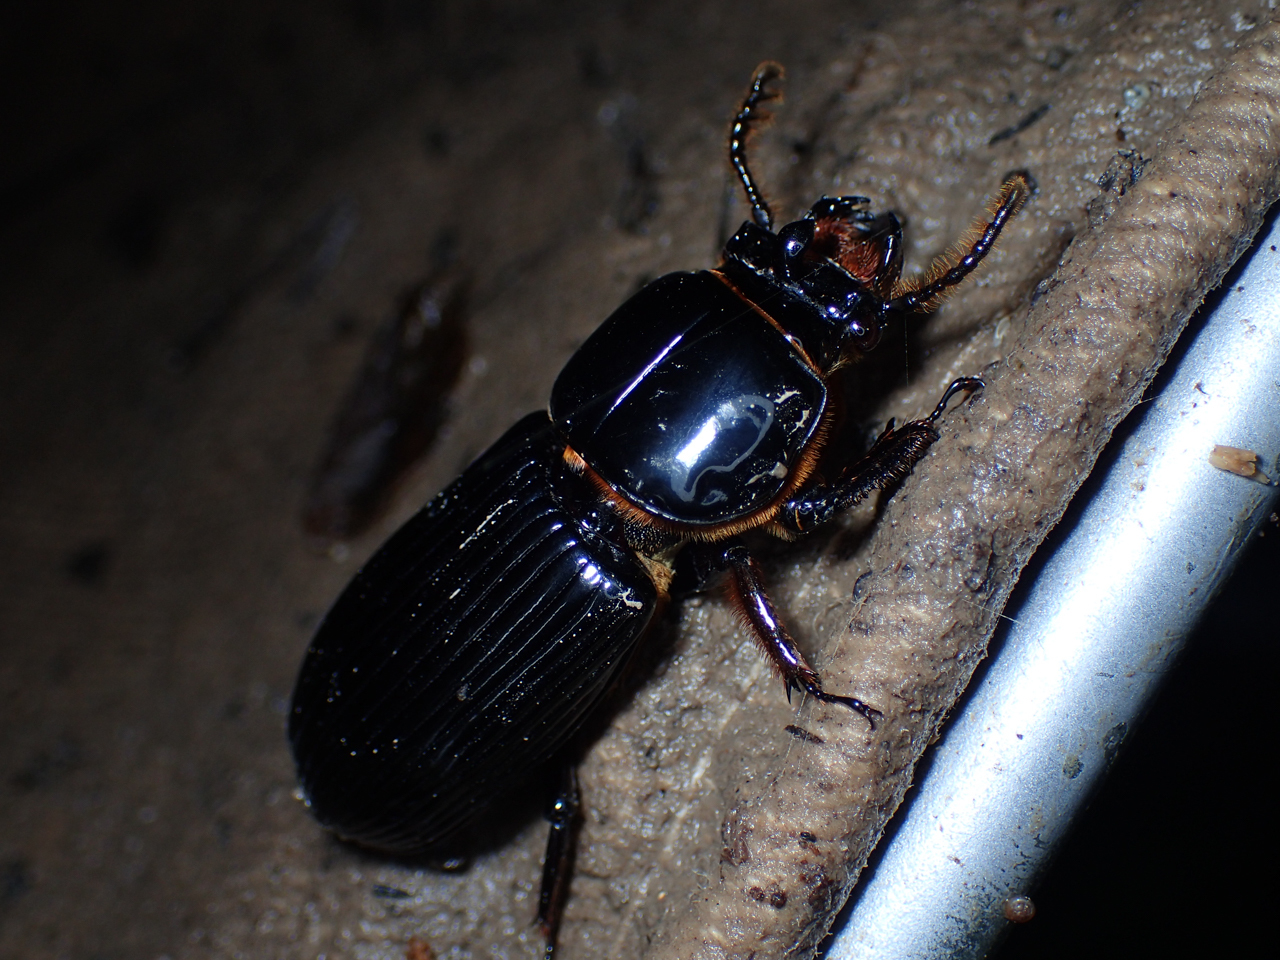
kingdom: Animalia
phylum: Arthropoda
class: Insecta
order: Coleoptera
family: Passalidae
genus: Odontotaenius
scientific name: Odontotaenius disjunctus
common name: Patent leather beetle
